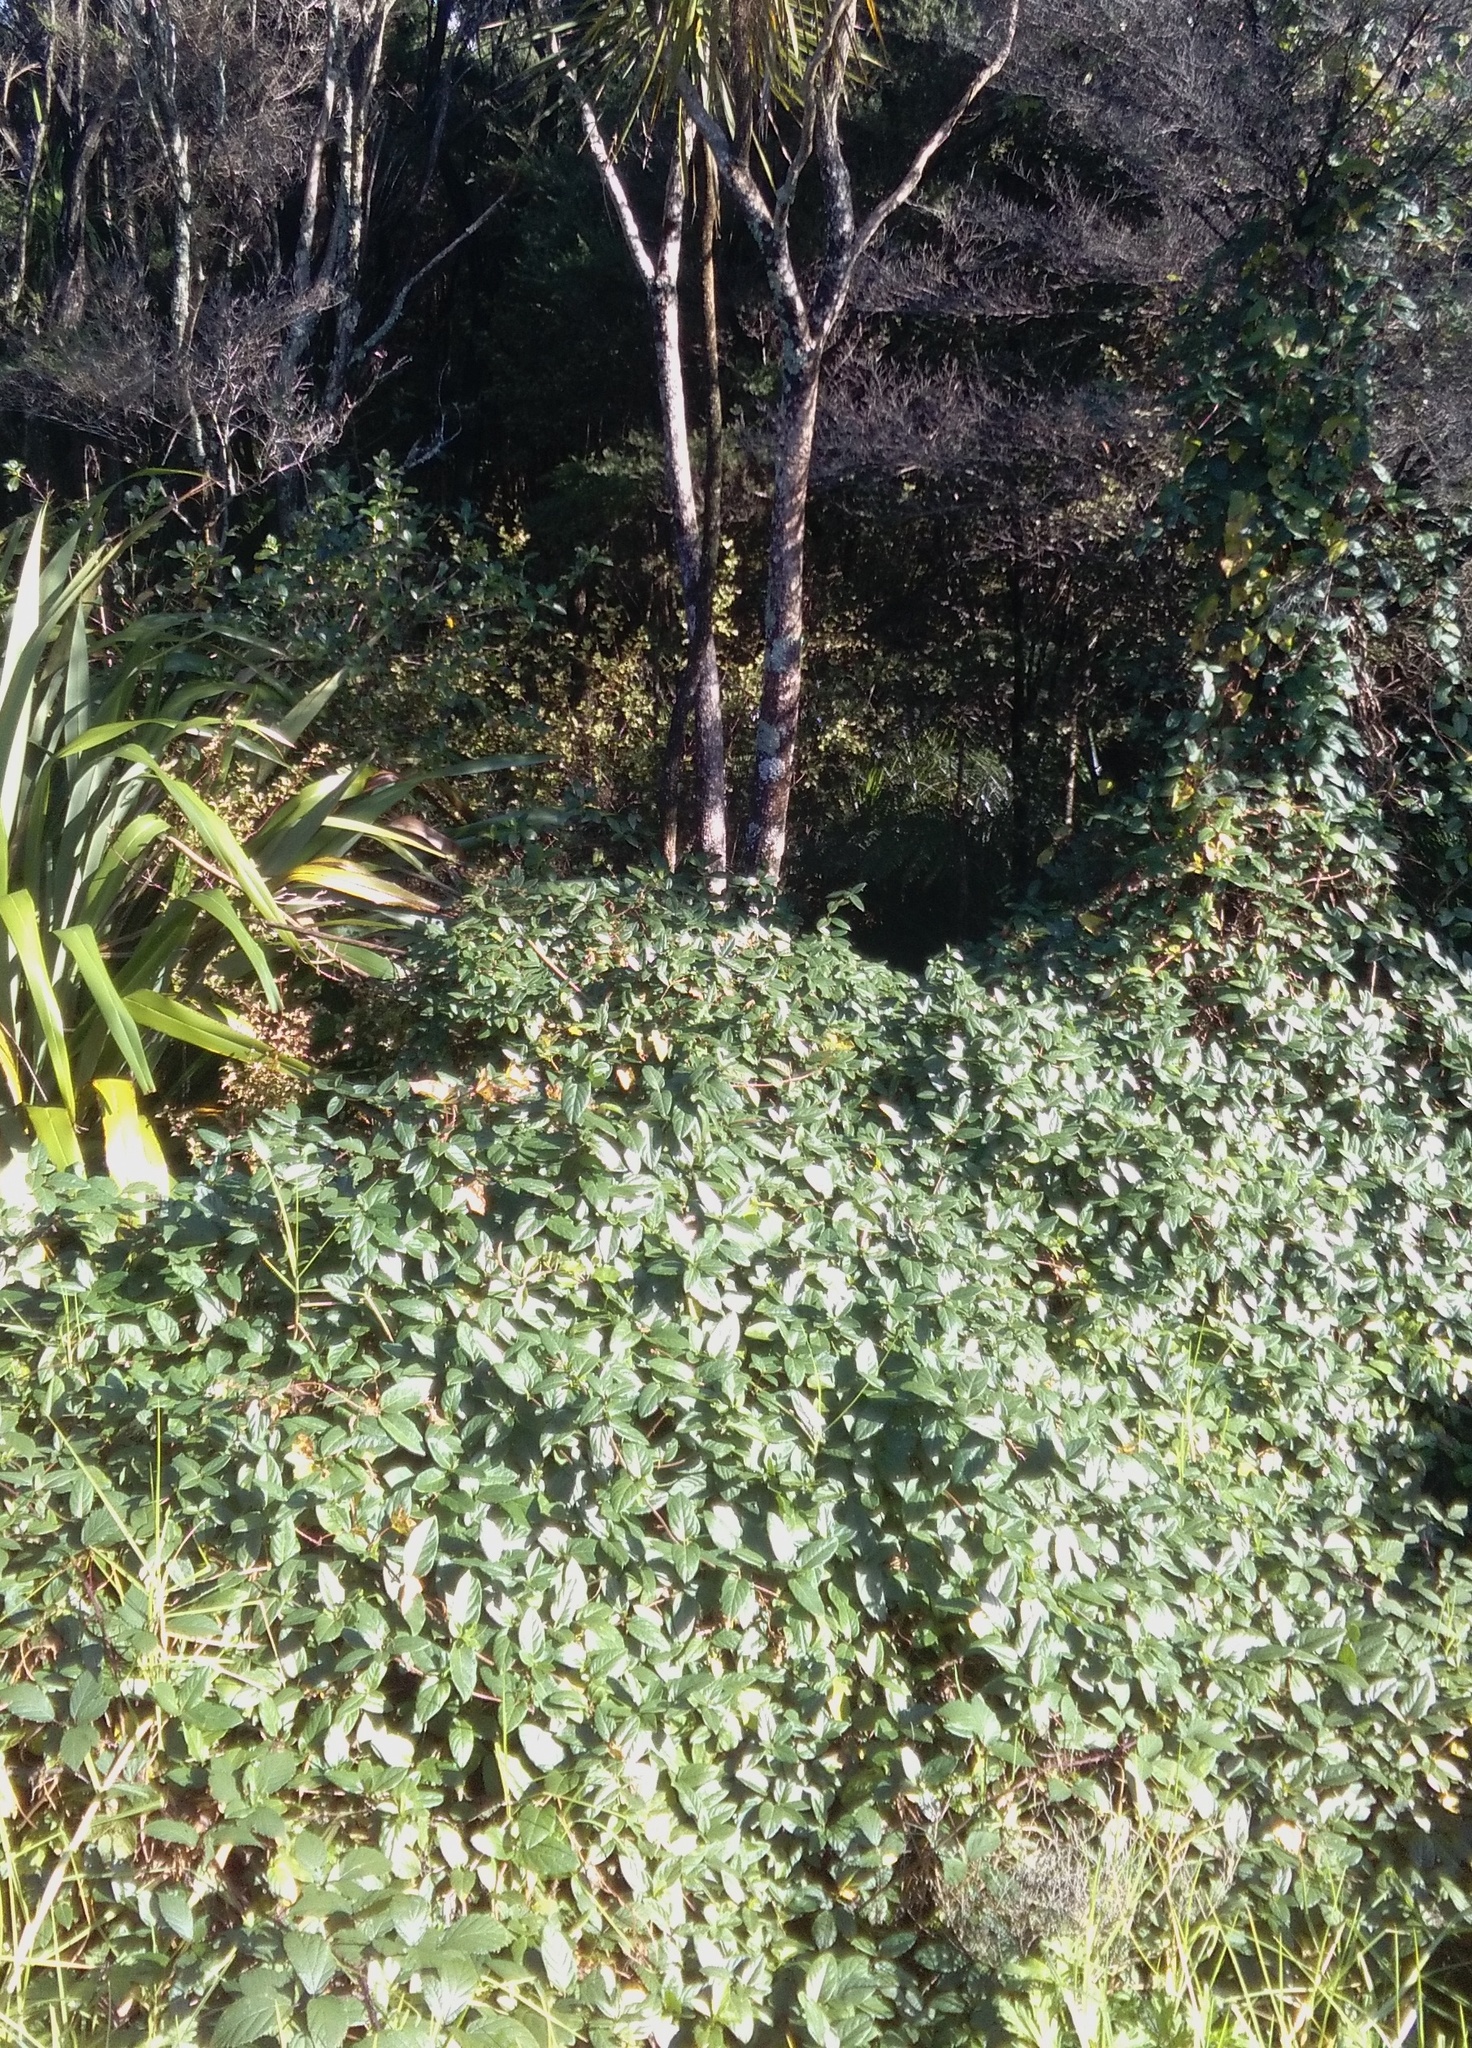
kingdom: Plantae
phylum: Tracheophyta
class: Magnoliopsida
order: Ericales
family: Primulaceae
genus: Myrsine
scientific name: Myrsine australis
